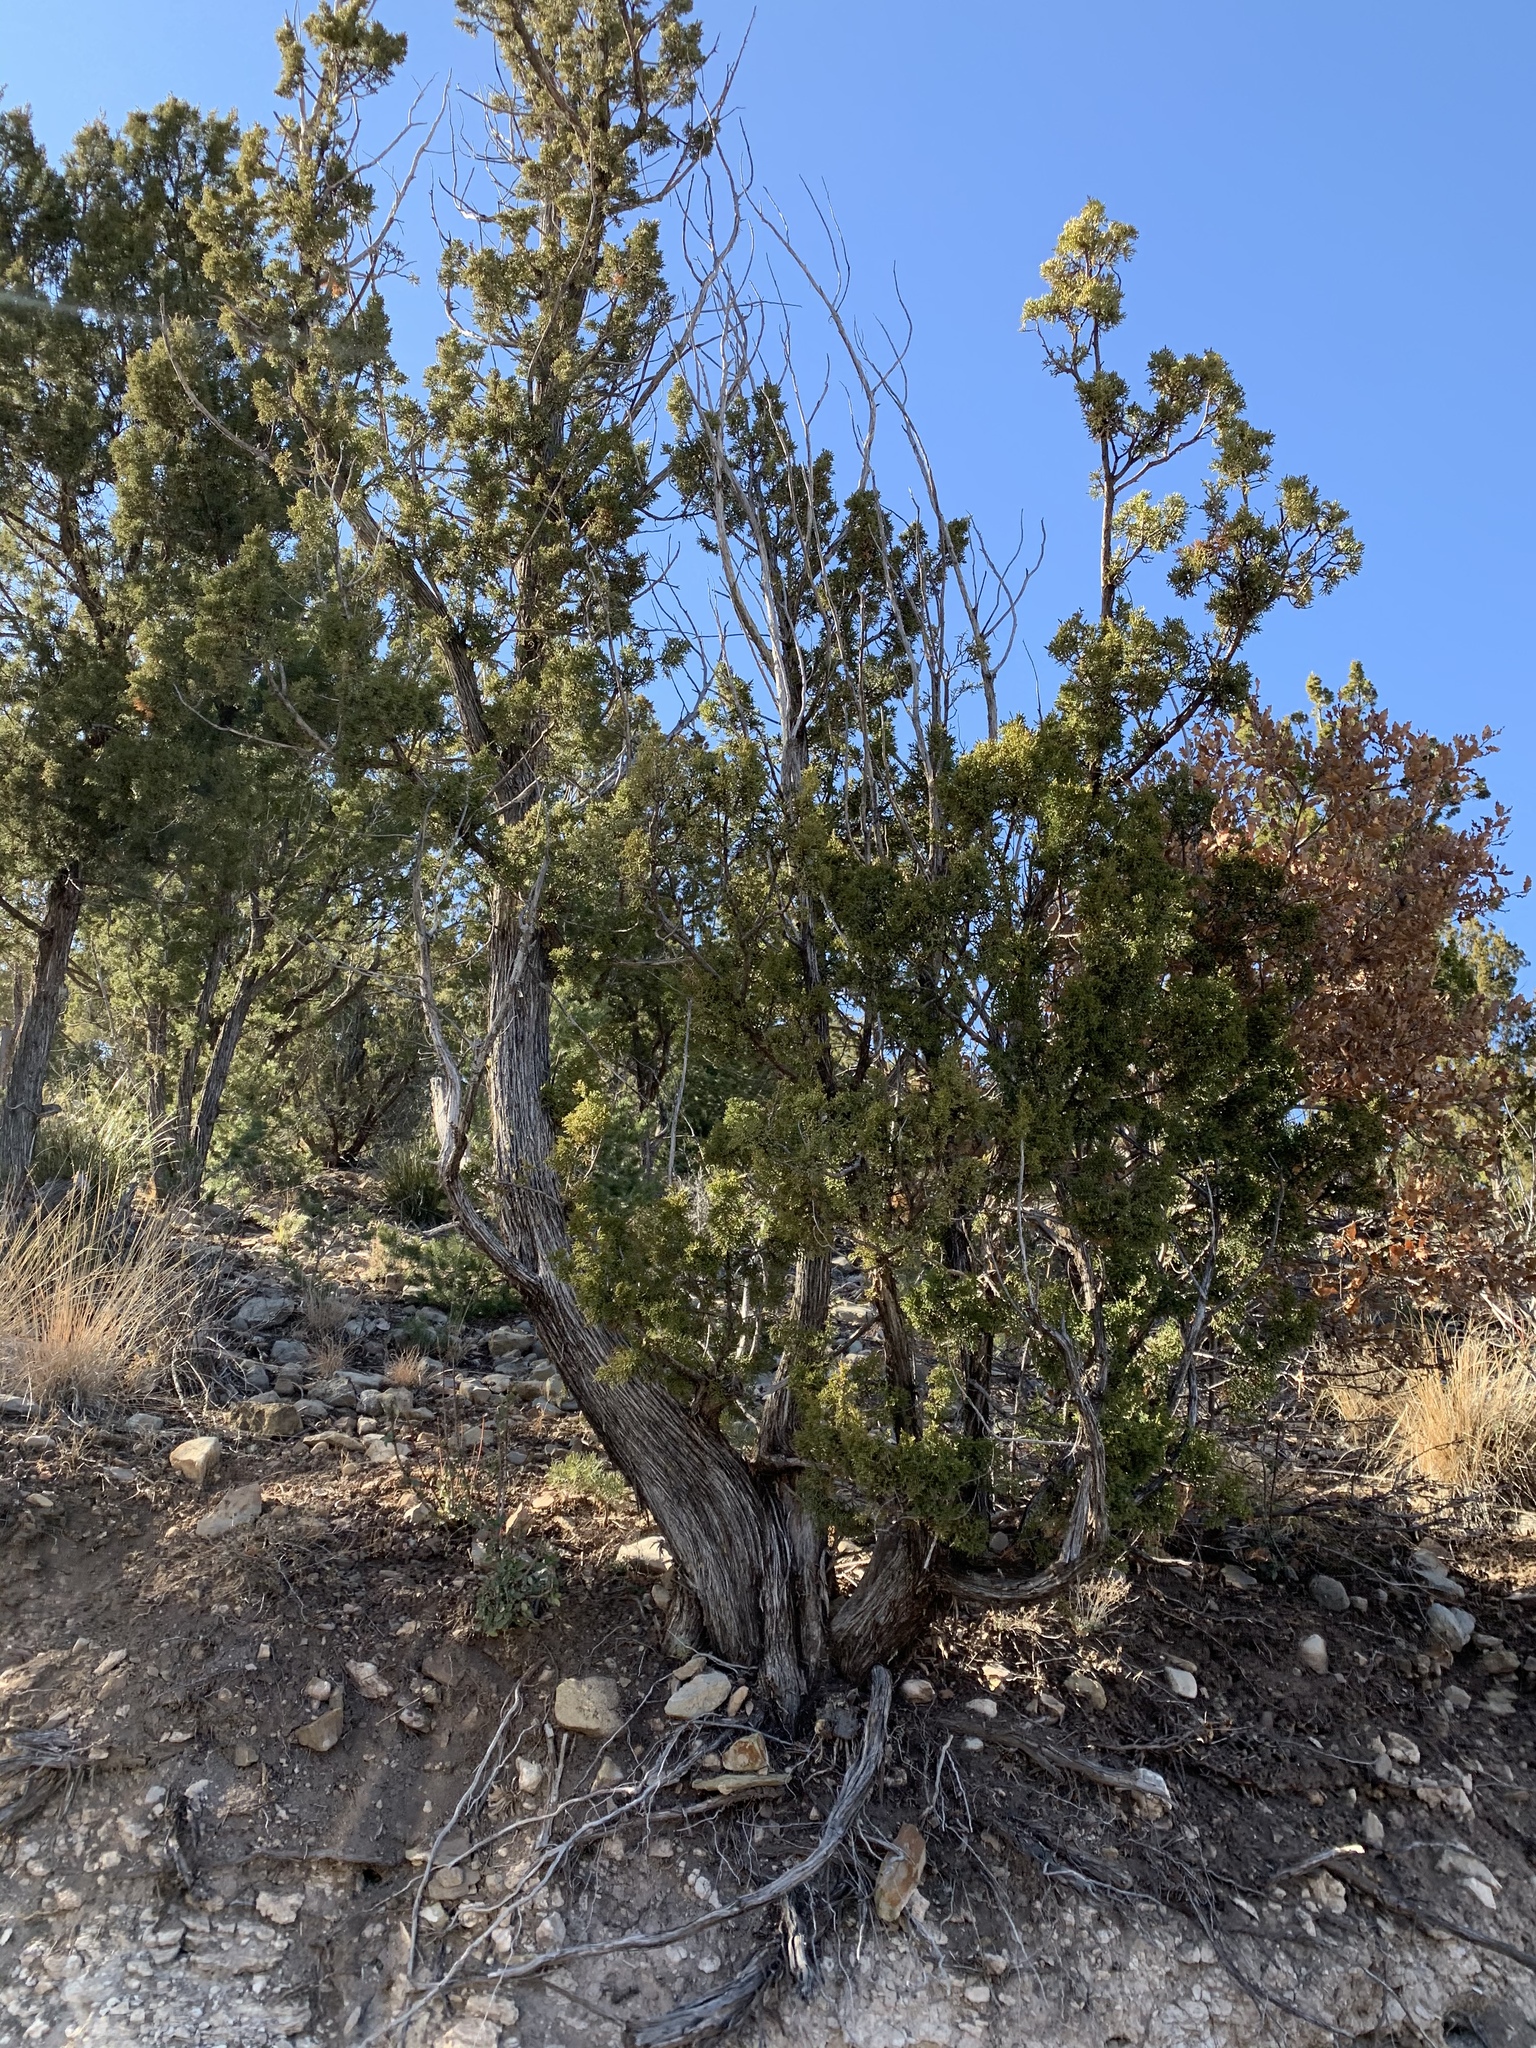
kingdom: Plantae
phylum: Tracheophyta
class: Pinopsida
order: Pinales
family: Cupressaceae
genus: Juniperus
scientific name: Juniperus monosperma
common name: One-seed juniper
